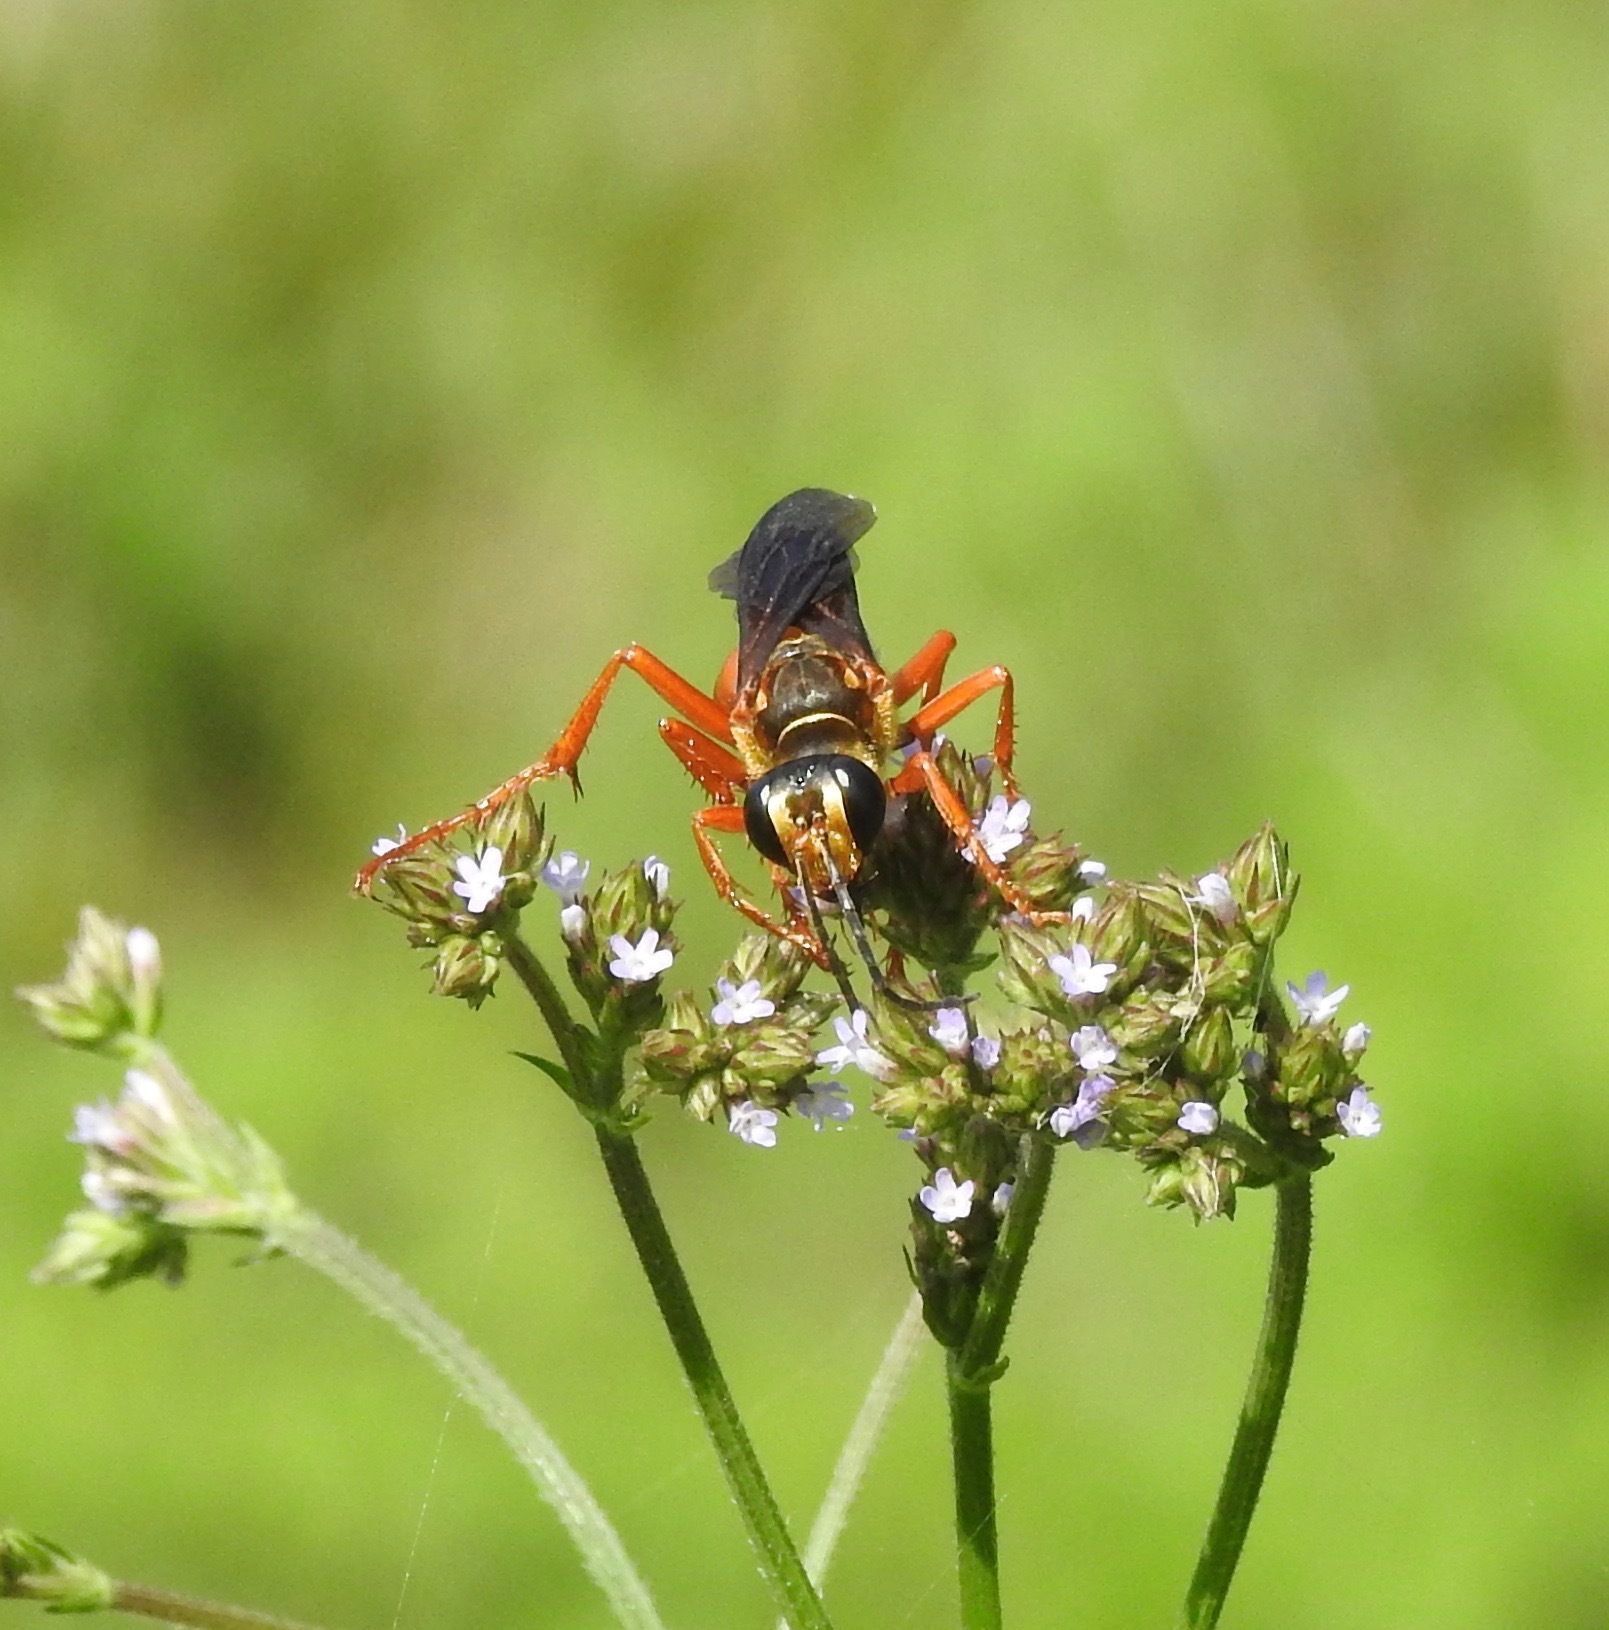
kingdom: Animalia
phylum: Arthropoda
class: Insecta
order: Hymenoptera
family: Sphecidae
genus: Sphex
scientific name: Sphex ichneumoneus
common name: Great golden digger wasp
